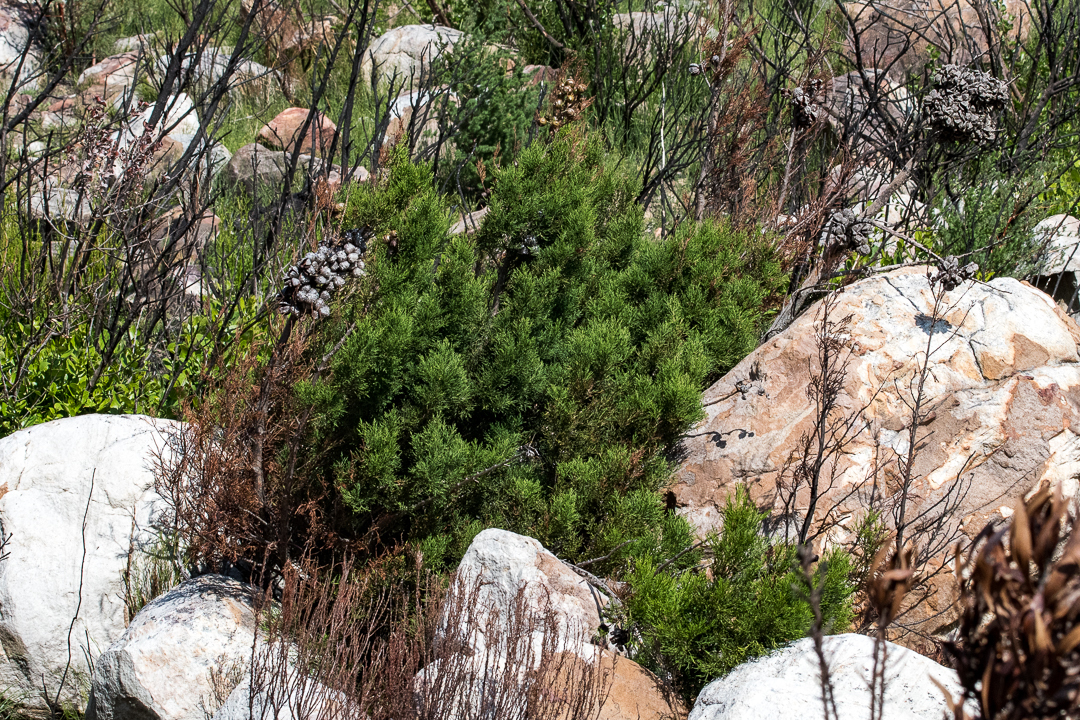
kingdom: Plantae
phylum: Tracheophyta
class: Pinopsida
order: Pinales
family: Cupressaceae
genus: Widdringtonia
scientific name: Widdringtonia nodiflora
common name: Cape cypress
